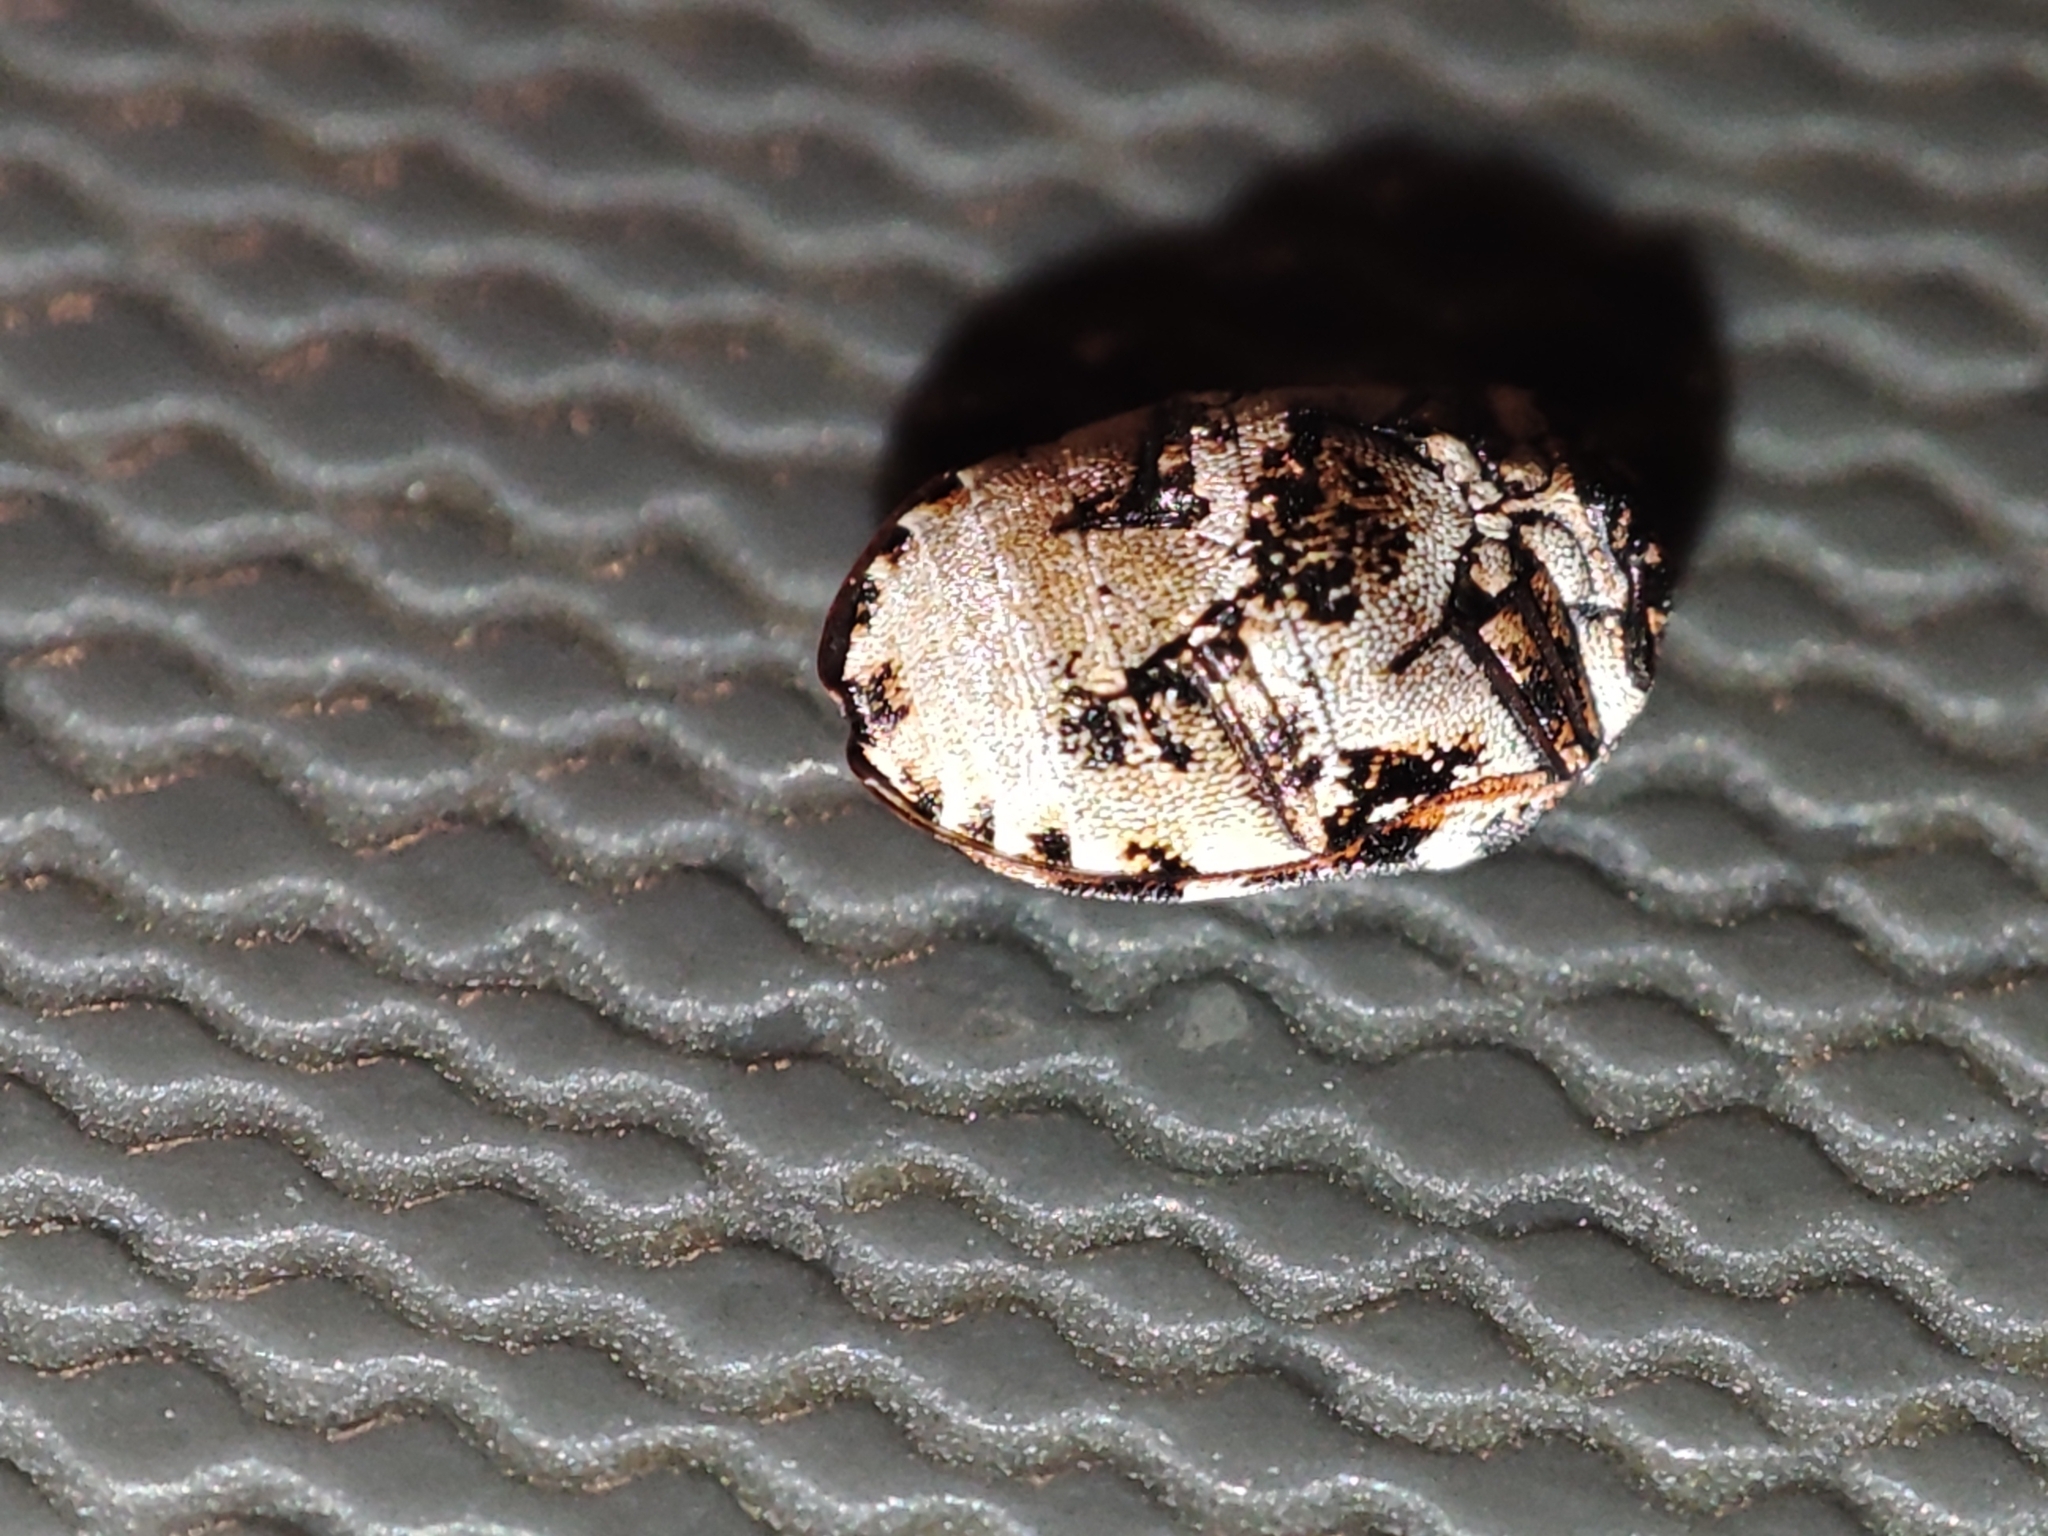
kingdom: Animalia
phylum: Arthropoda
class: Insecta
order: Coleoptera
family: Dermestidae
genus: Anthrenus
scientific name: Anthrenus scrophulariae
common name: Buffalo carpet beetle
